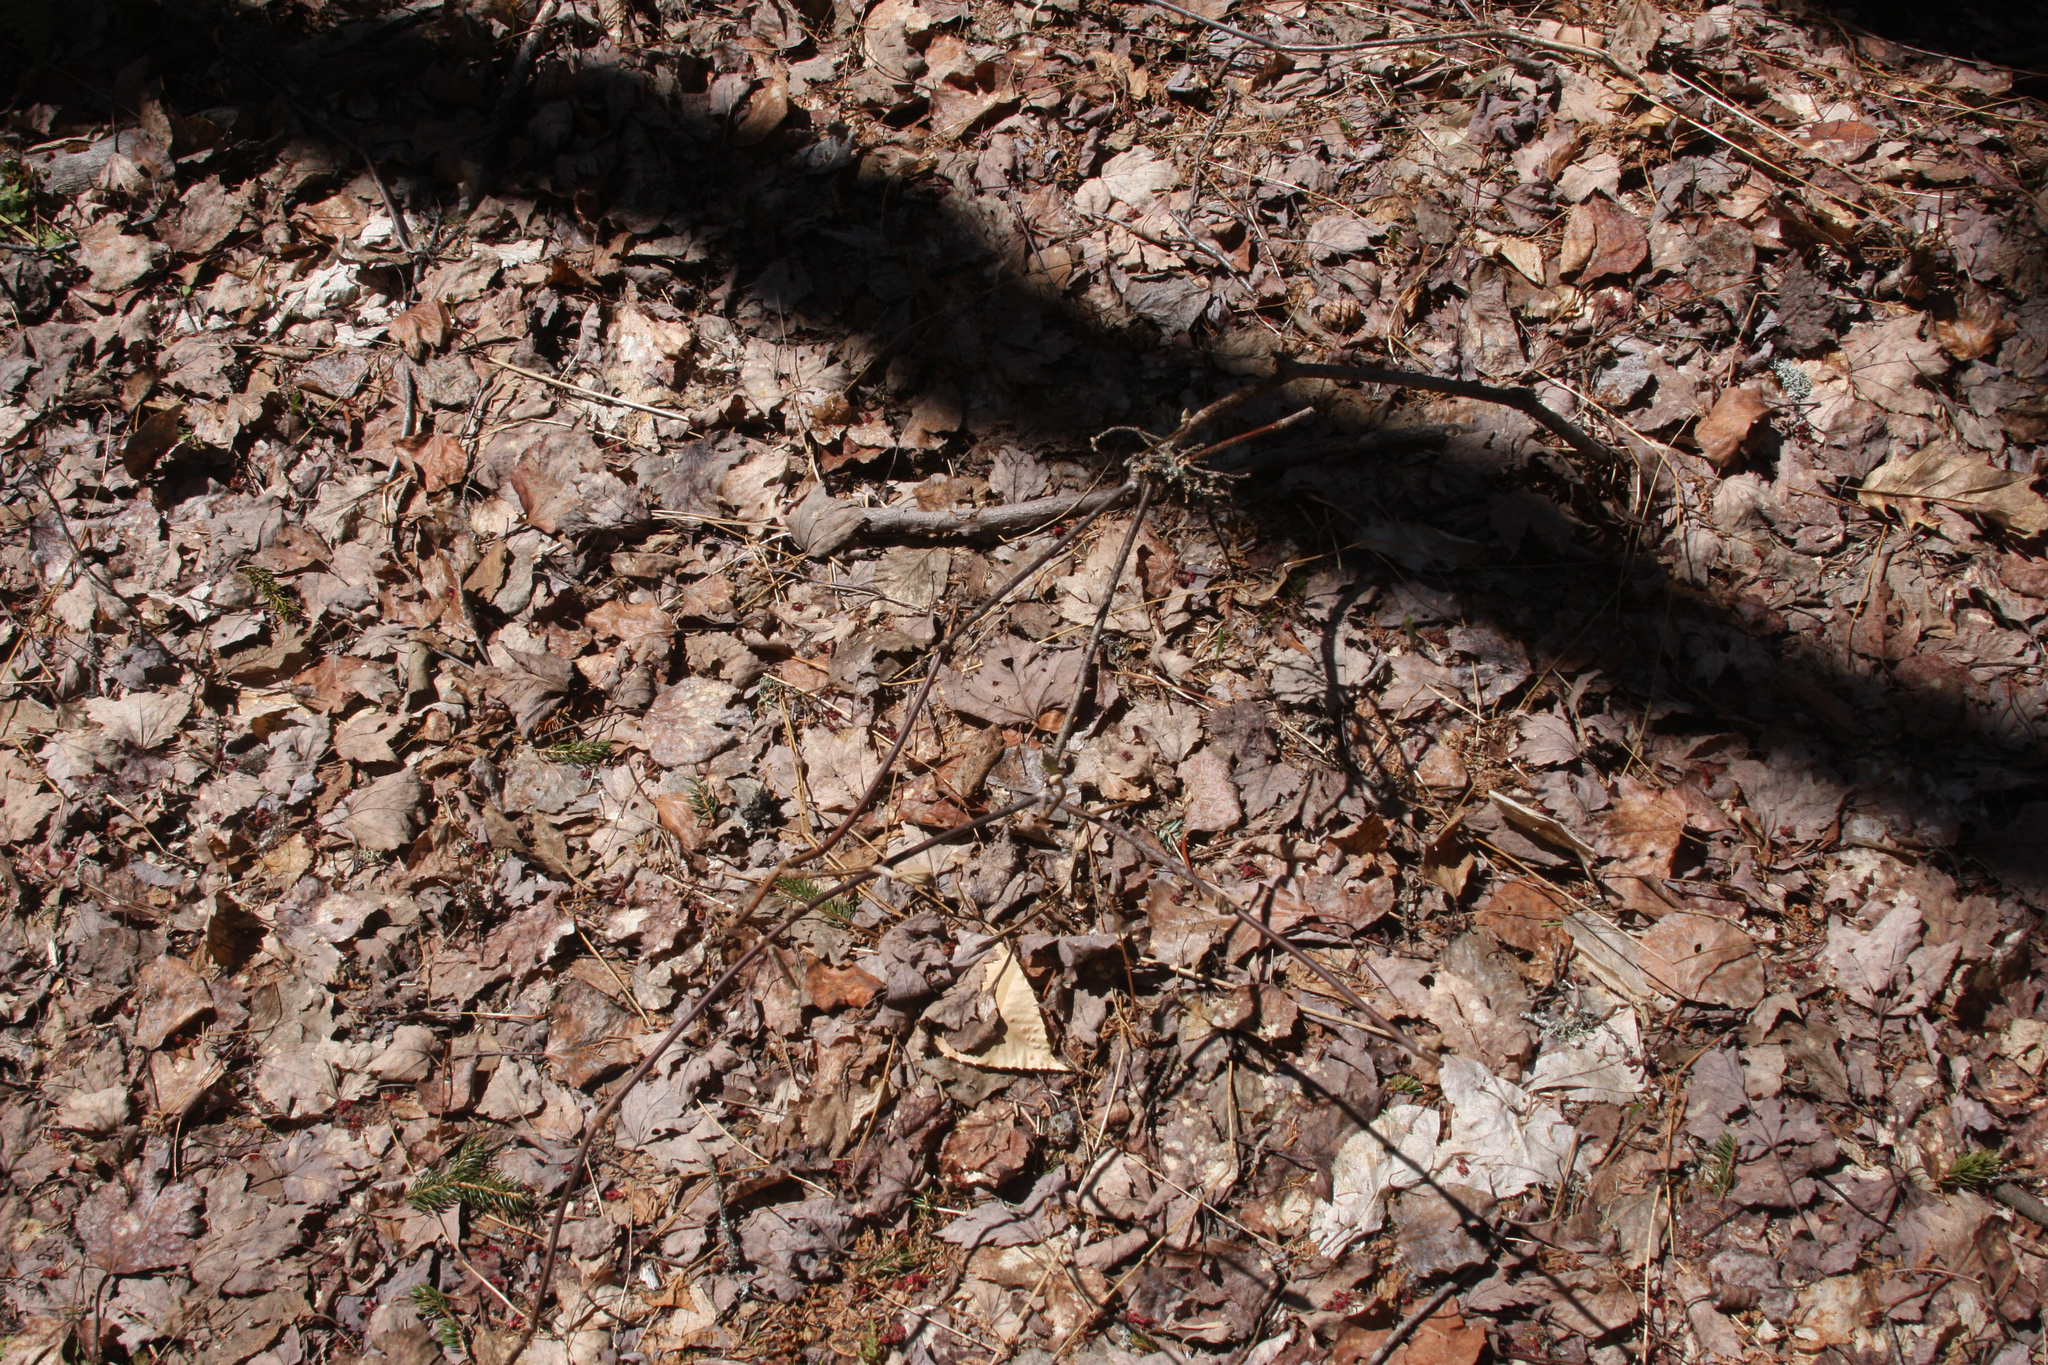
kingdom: Plantae
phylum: Tracheophyta
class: Magnoliopsida
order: Dipsacales
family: Viburnaceae
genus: Viburnum
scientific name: Viburnum lantanoides
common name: Hobblebush
